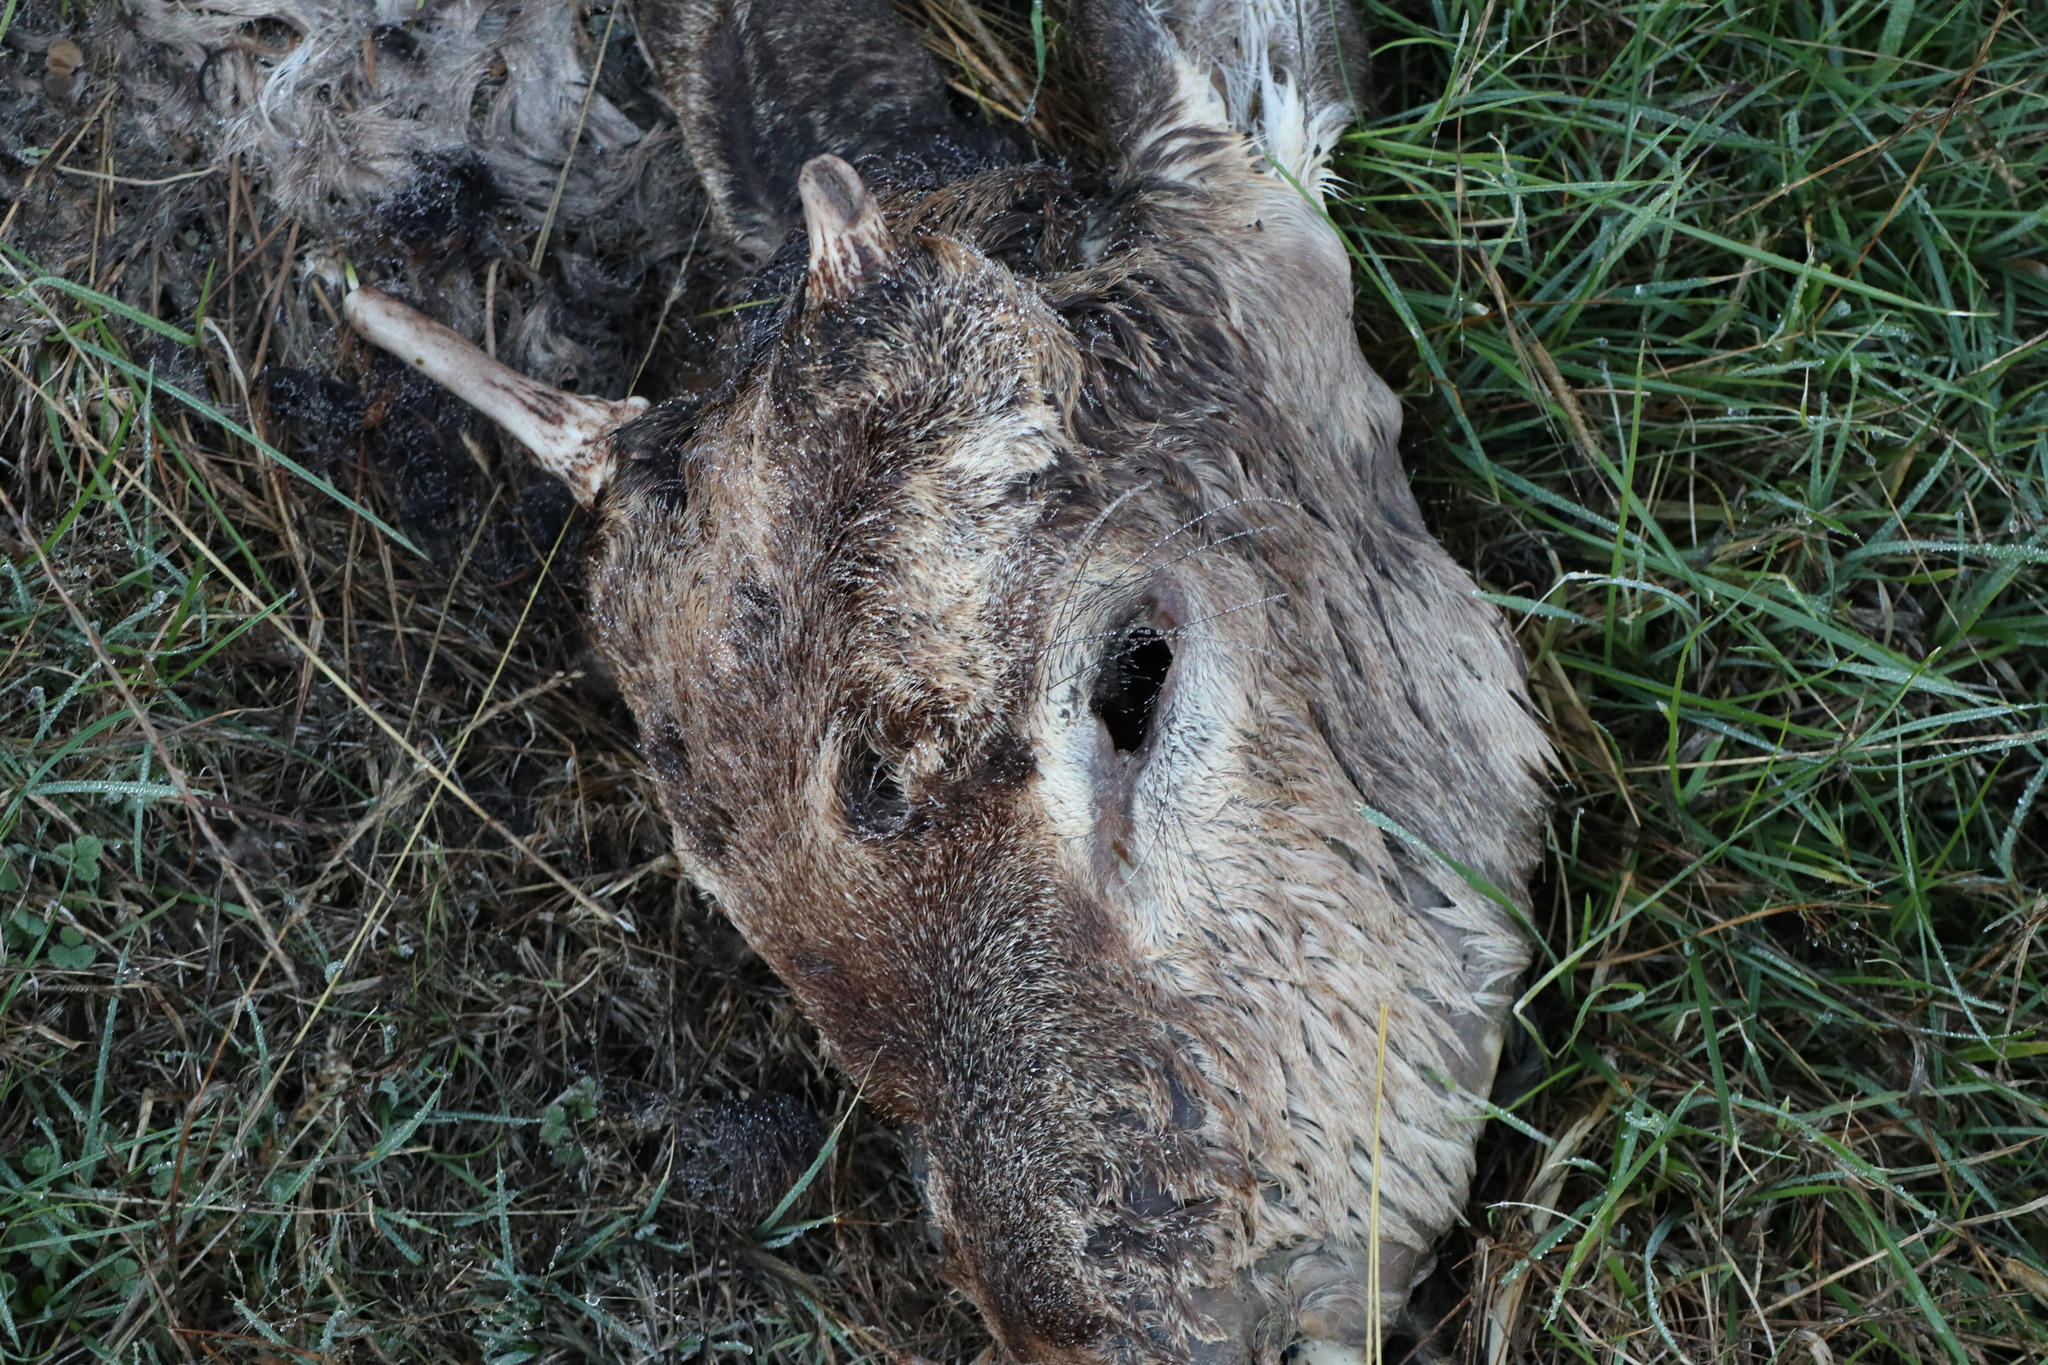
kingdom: Animalia
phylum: Chordata
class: Mammalia
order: Artiodactyla
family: Cervidae
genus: Cervus
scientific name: Cervus elaphus
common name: Red deer
